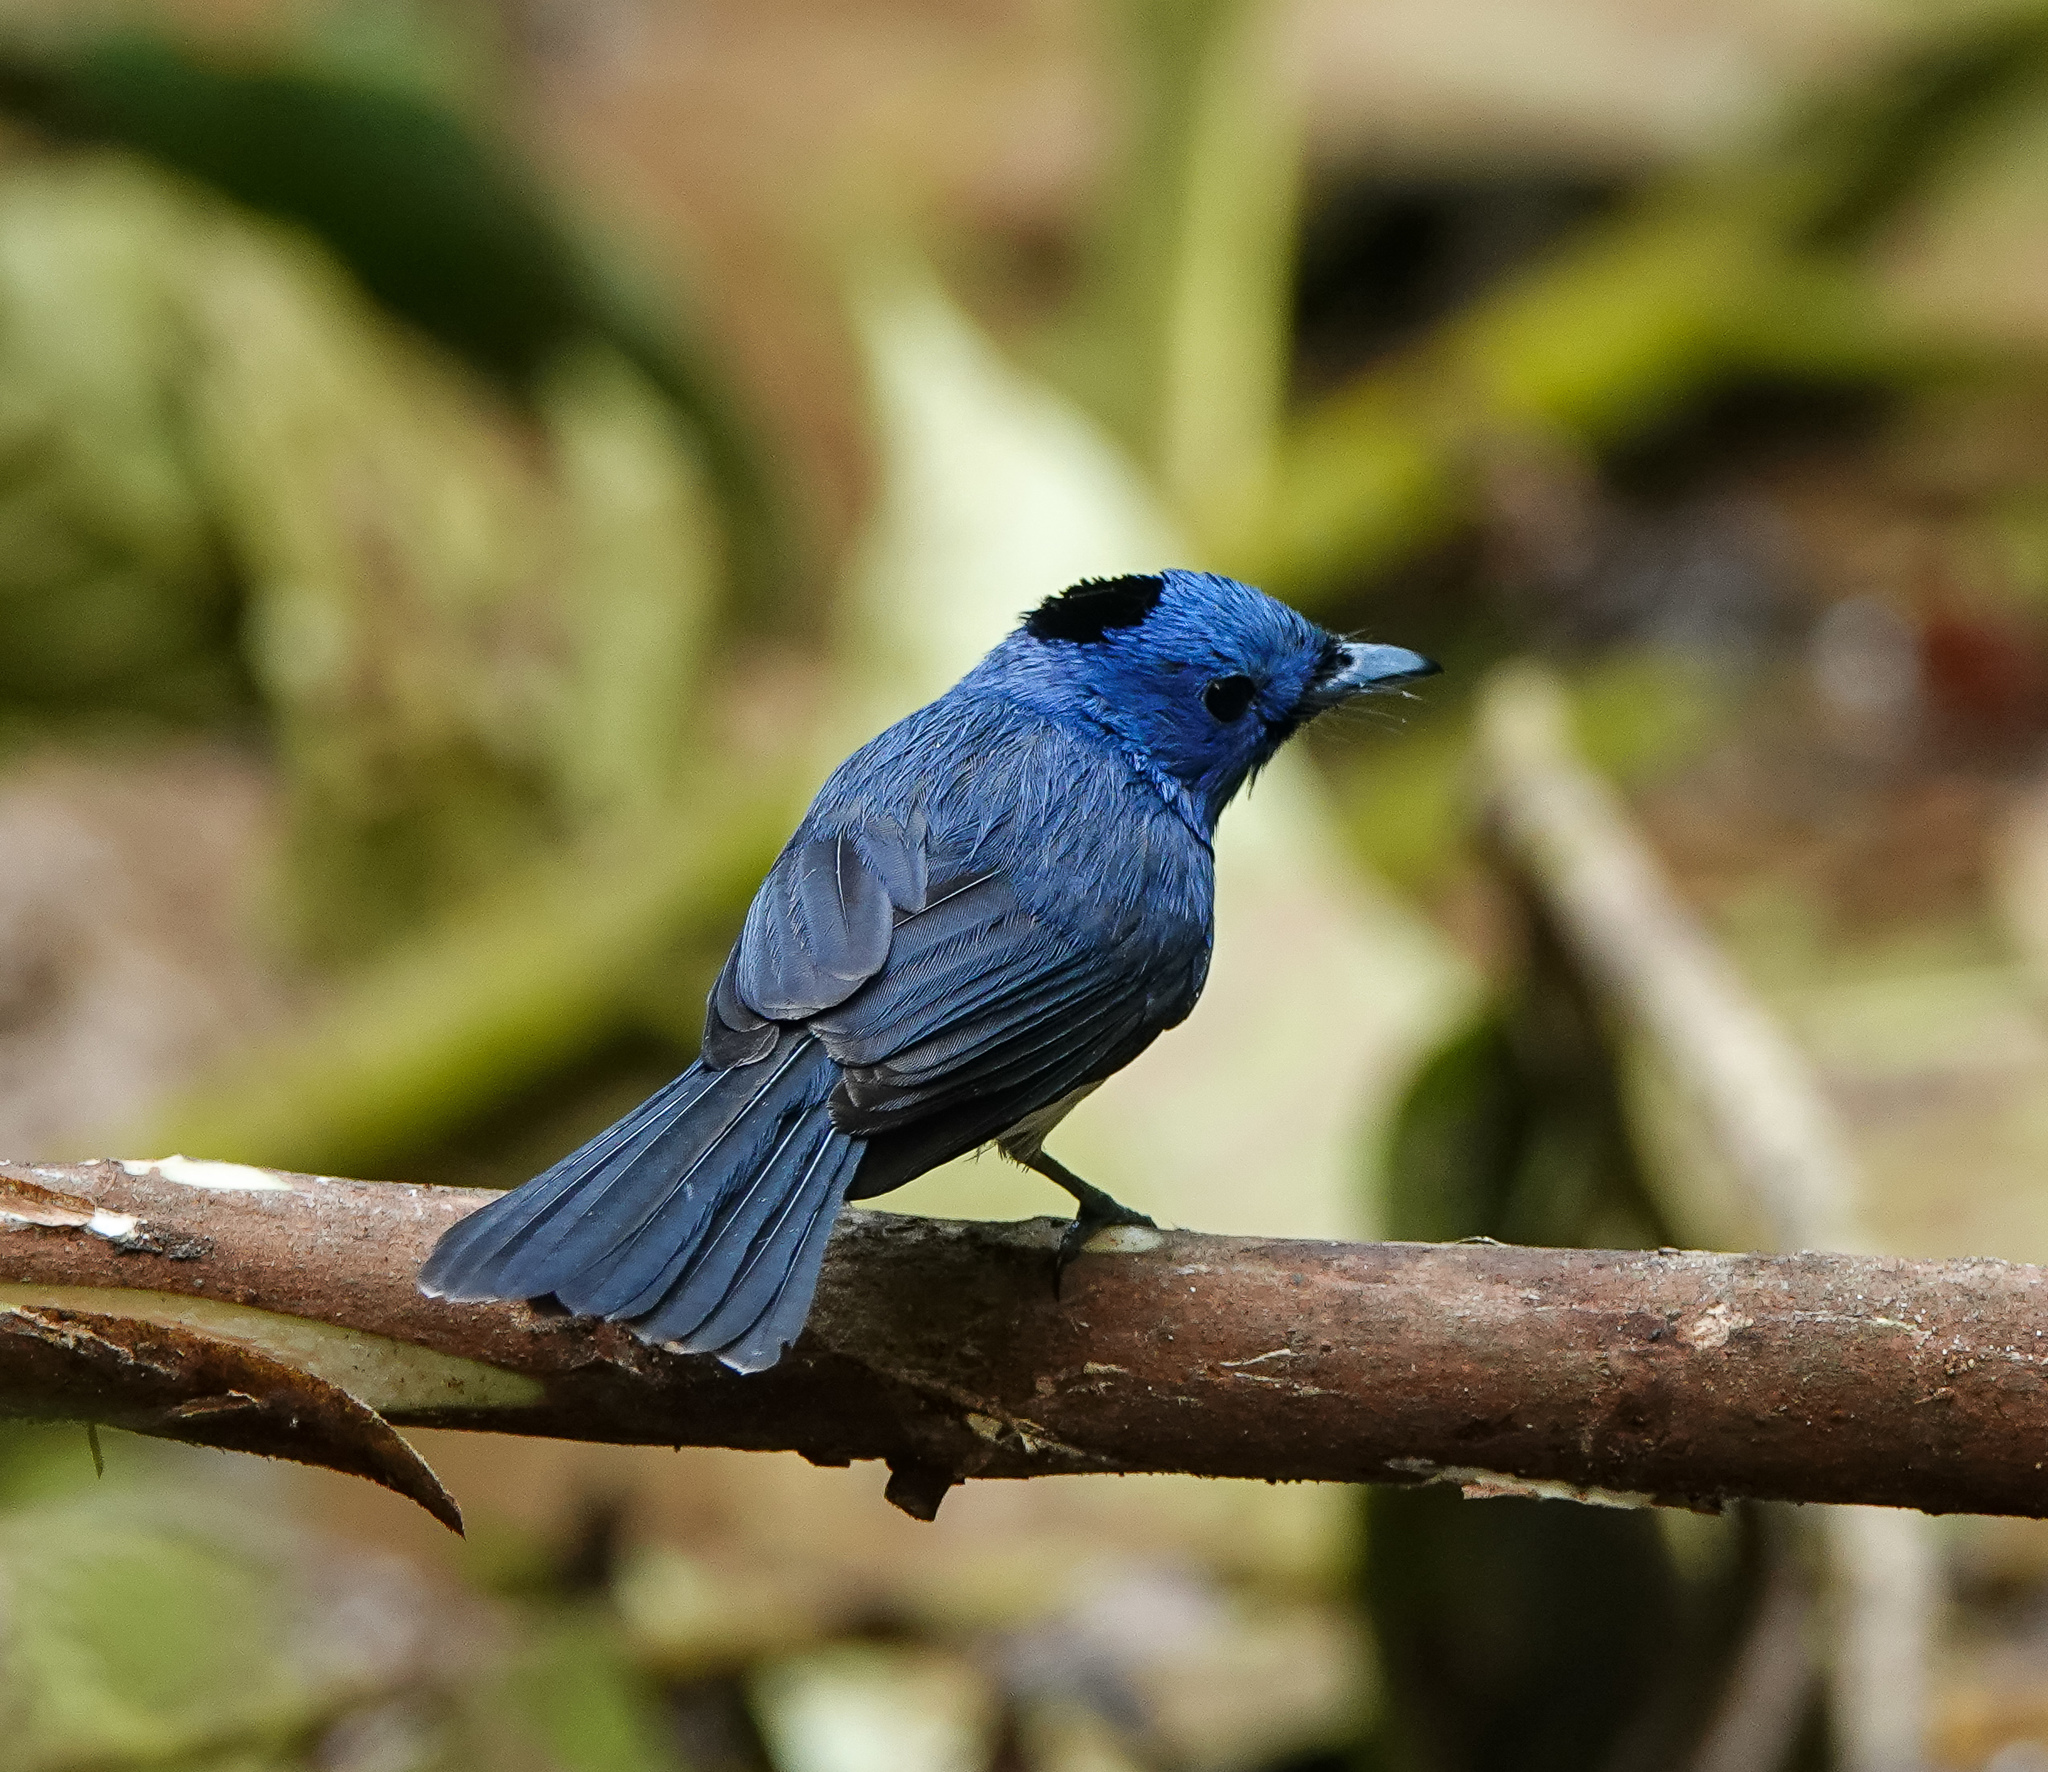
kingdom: Animalia
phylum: Chordata
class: Aves
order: Passeriformes
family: Monarchidae
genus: Hypothymis
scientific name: Hypothymis azurea
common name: Black-naped monarch
